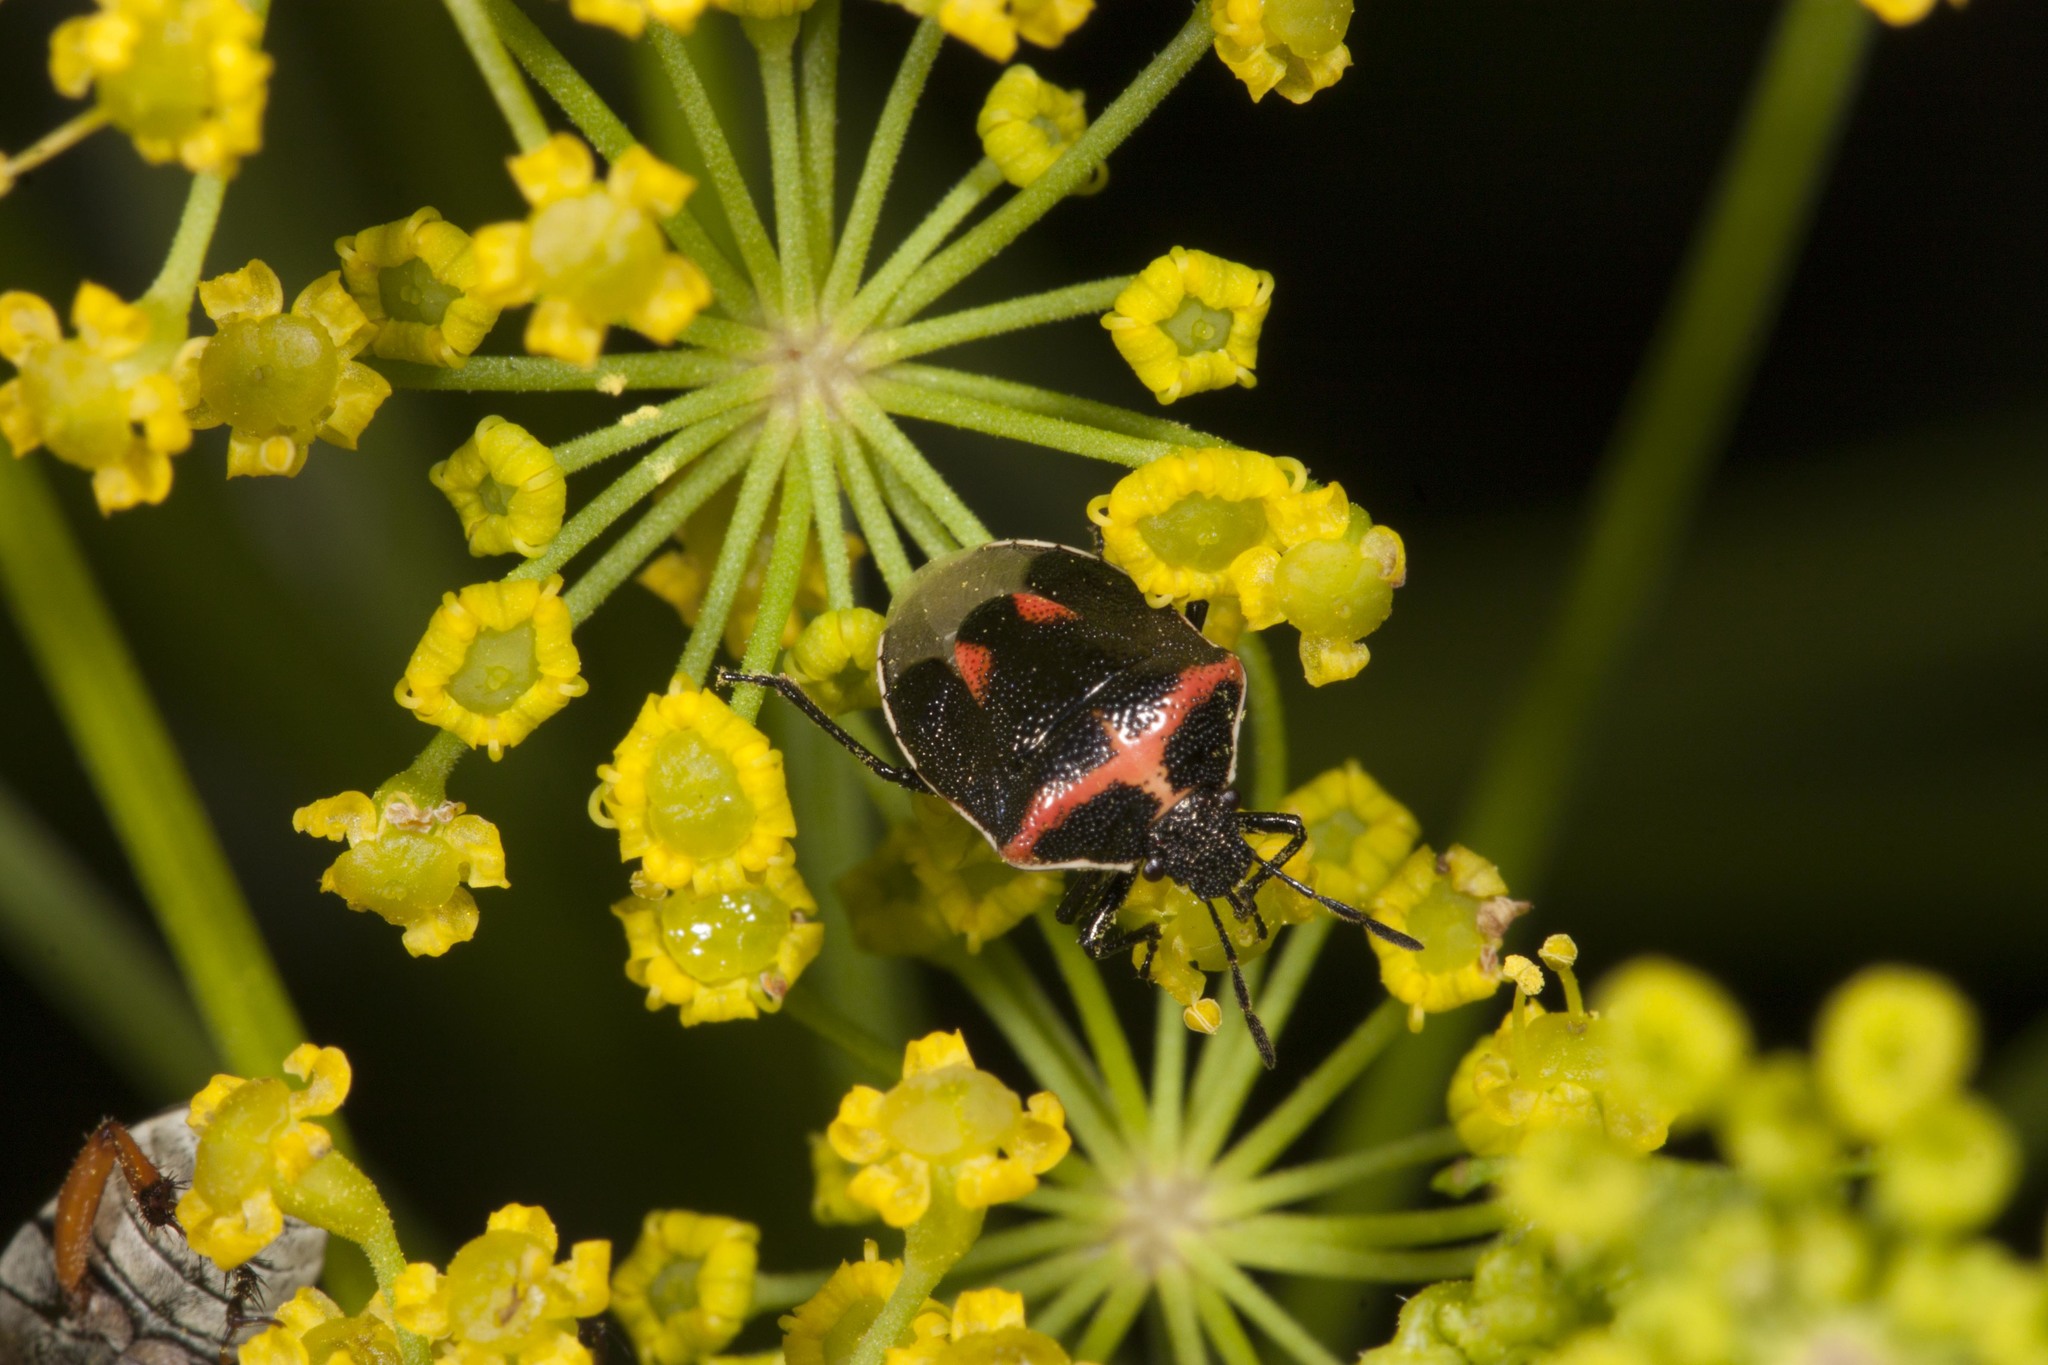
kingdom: Animalia
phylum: Arthropoda
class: Insecta
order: Hemiptera
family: Pentatomidae
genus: Cosmopepla
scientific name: Cosmopepla lintneriana
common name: Twice-stabbed stink bug
